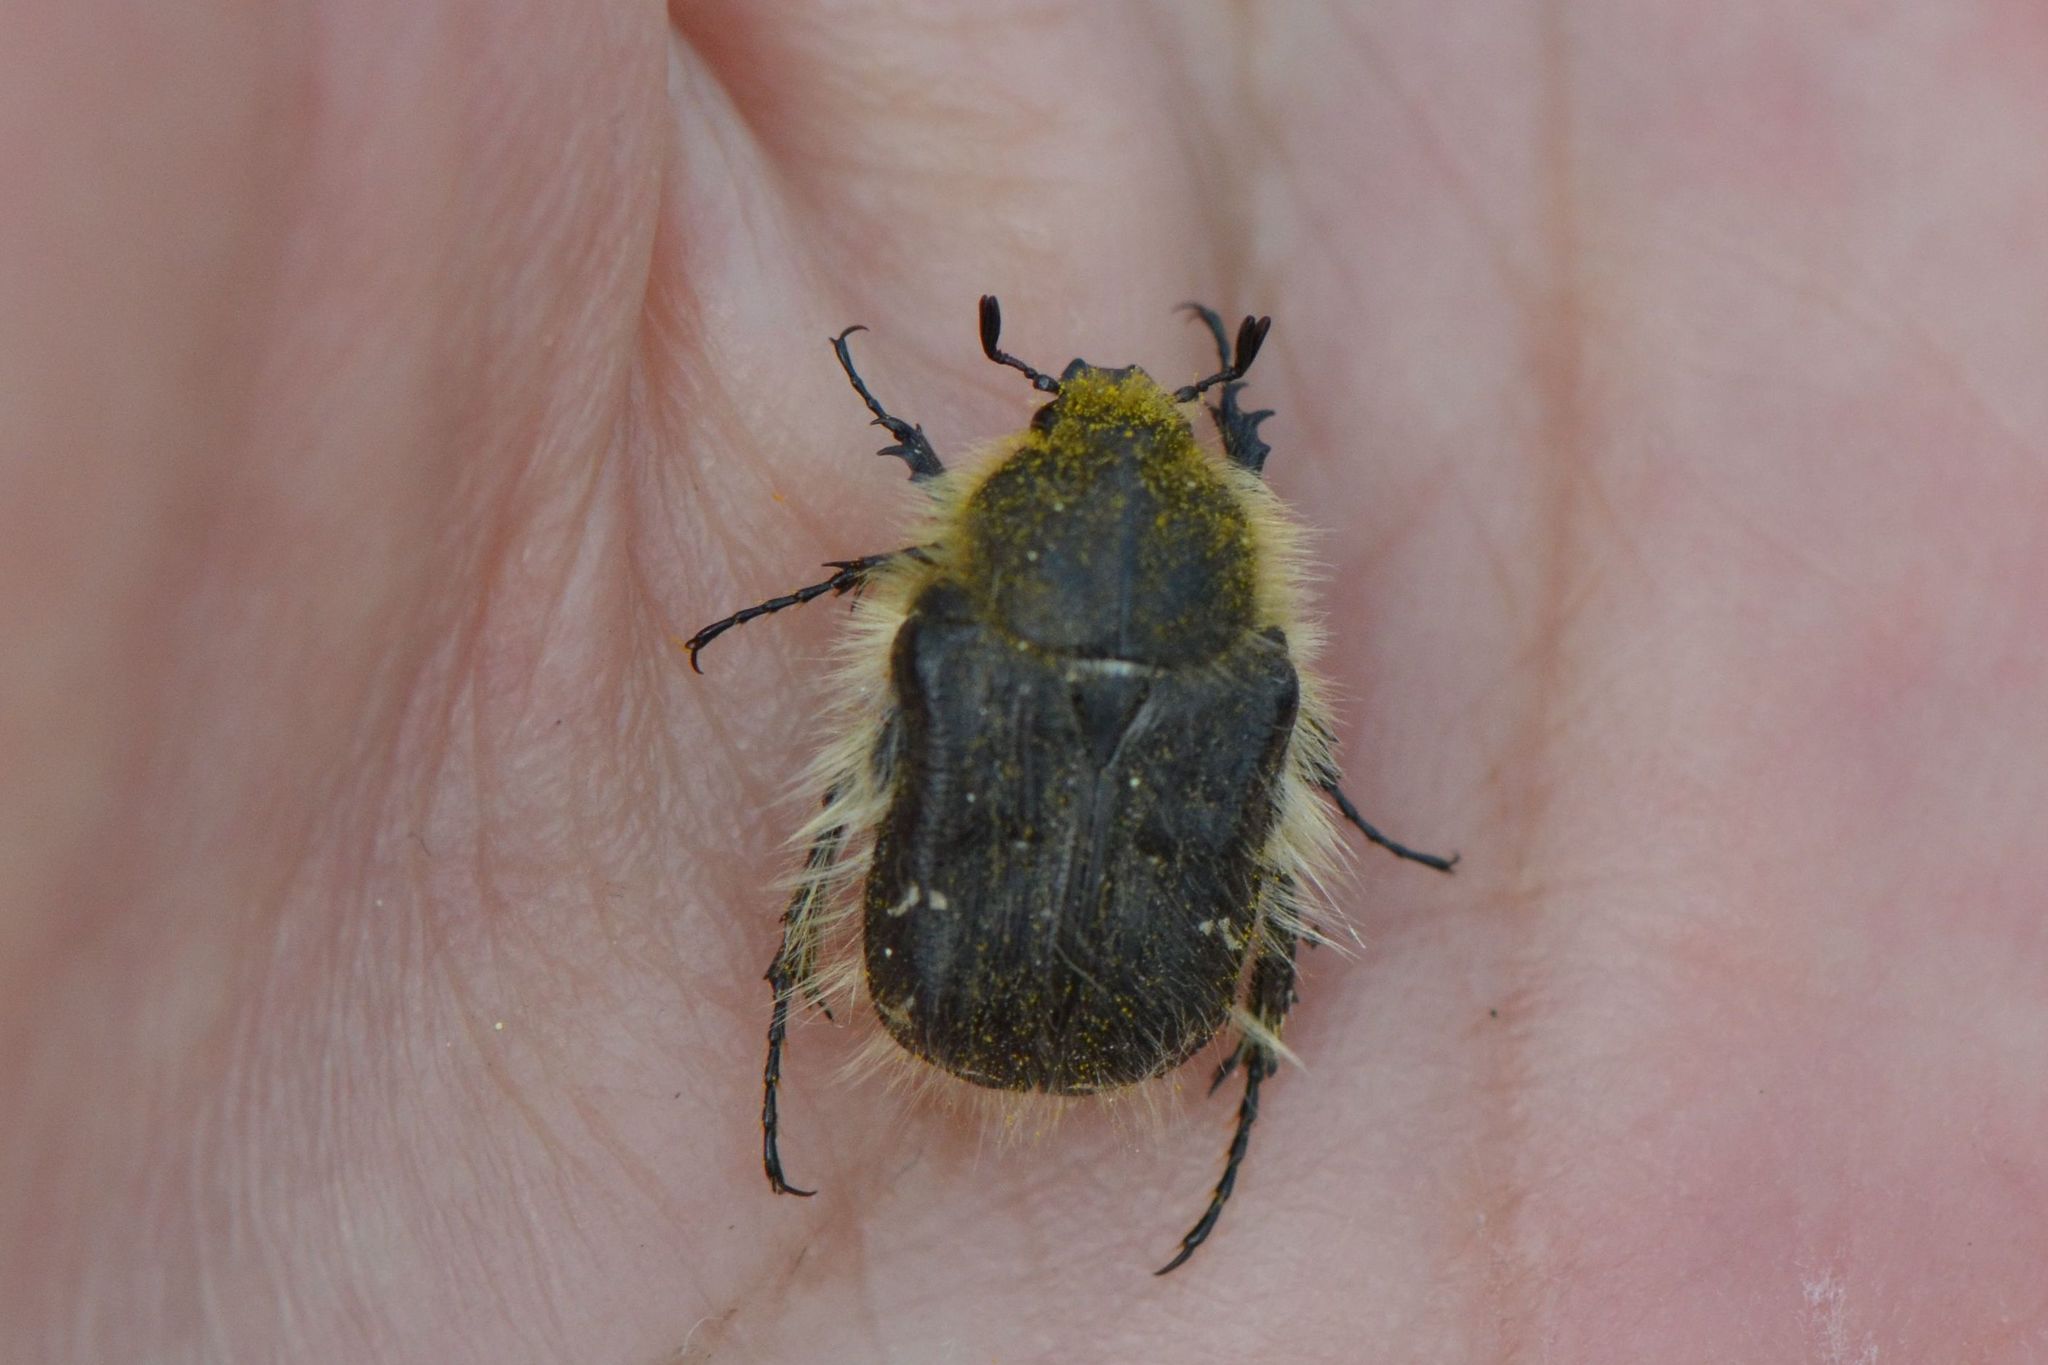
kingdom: Animalia
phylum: Arthropoda
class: Insecta
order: Coleoptera
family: Scarabaeidae
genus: Tropinota
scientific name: Tropinota hirta
